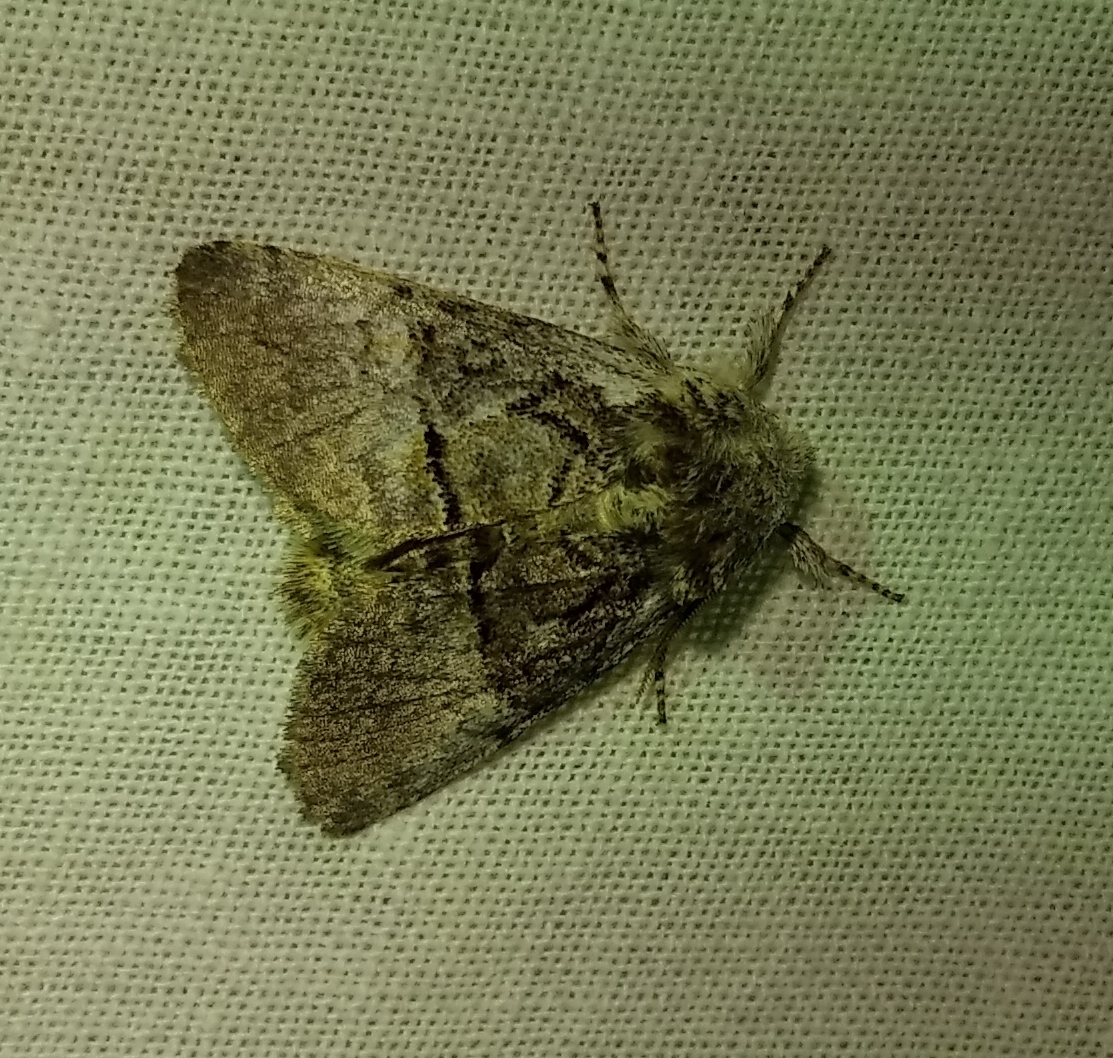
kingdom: Animalia
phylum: Arthropoda
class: Insecta
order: Lepidoptera
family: Noctuidae
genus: Colocasia
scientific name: Colocasia coryli
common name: Nut-tree tussock
